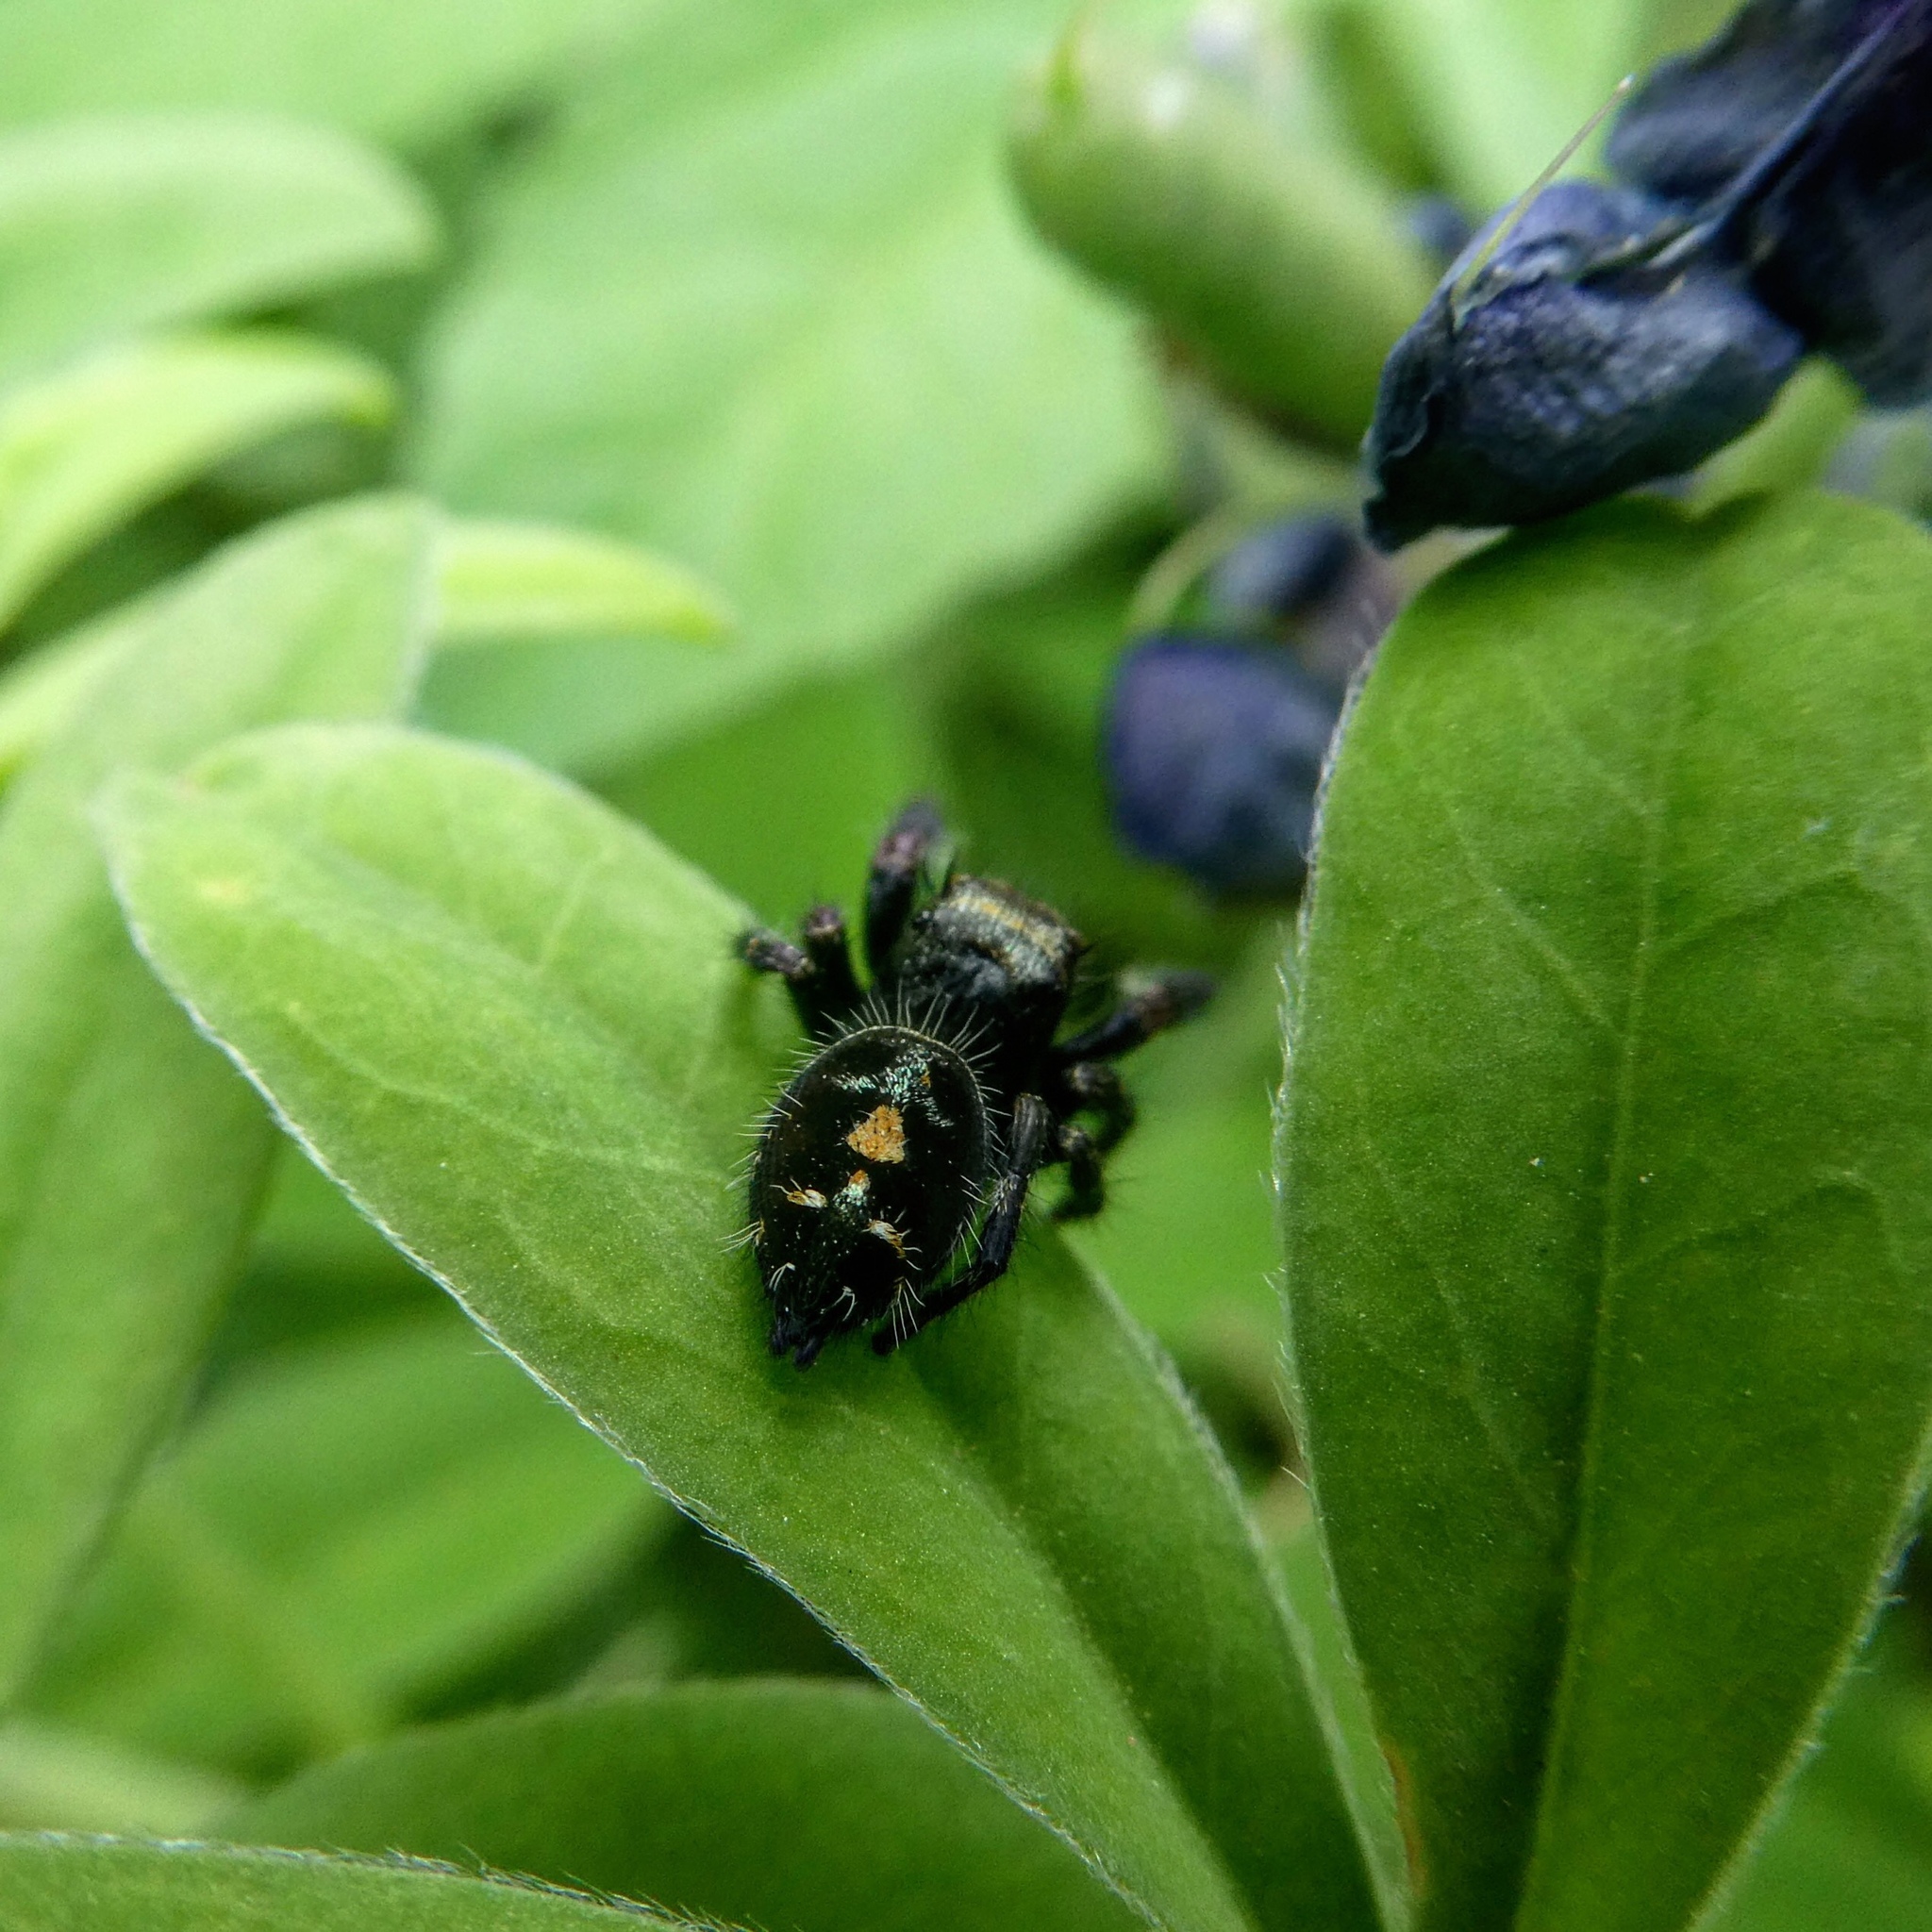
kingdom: Animalia
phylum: Arthropoda
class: Arachnida
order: Araneae
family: Salticidae
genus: Phidippus
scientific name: Phidippus audax
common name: Bold jumper
